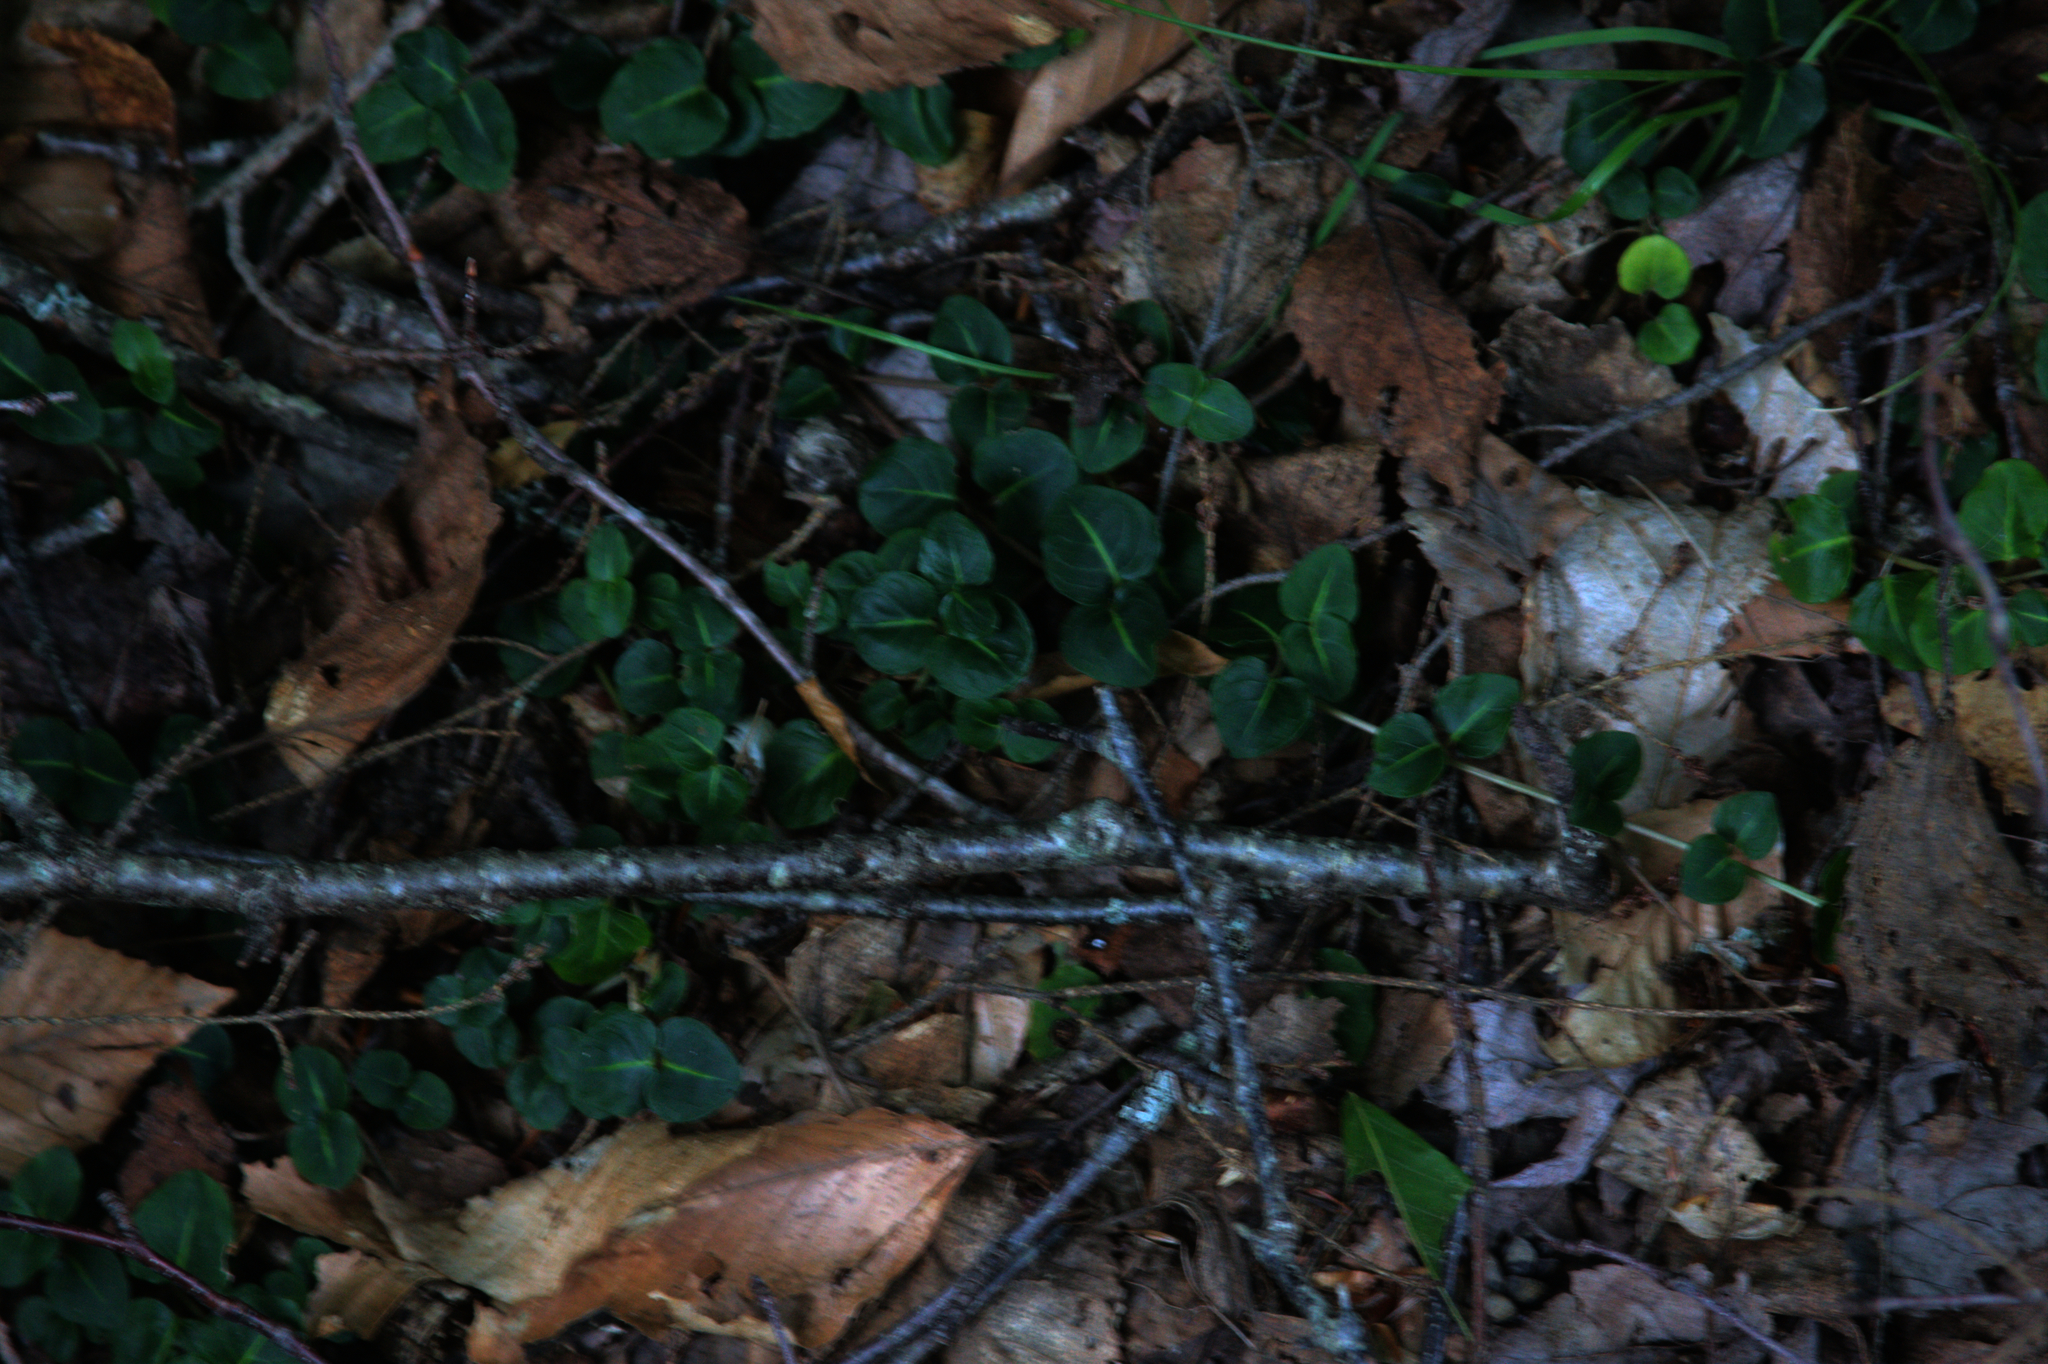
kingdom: Plantae
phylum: Tracheophyta
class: Magnoliopsida
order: Gentianales
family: Rubiaceae
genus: Mitchella
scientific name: Mitchella repens
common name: Partridge-berry
